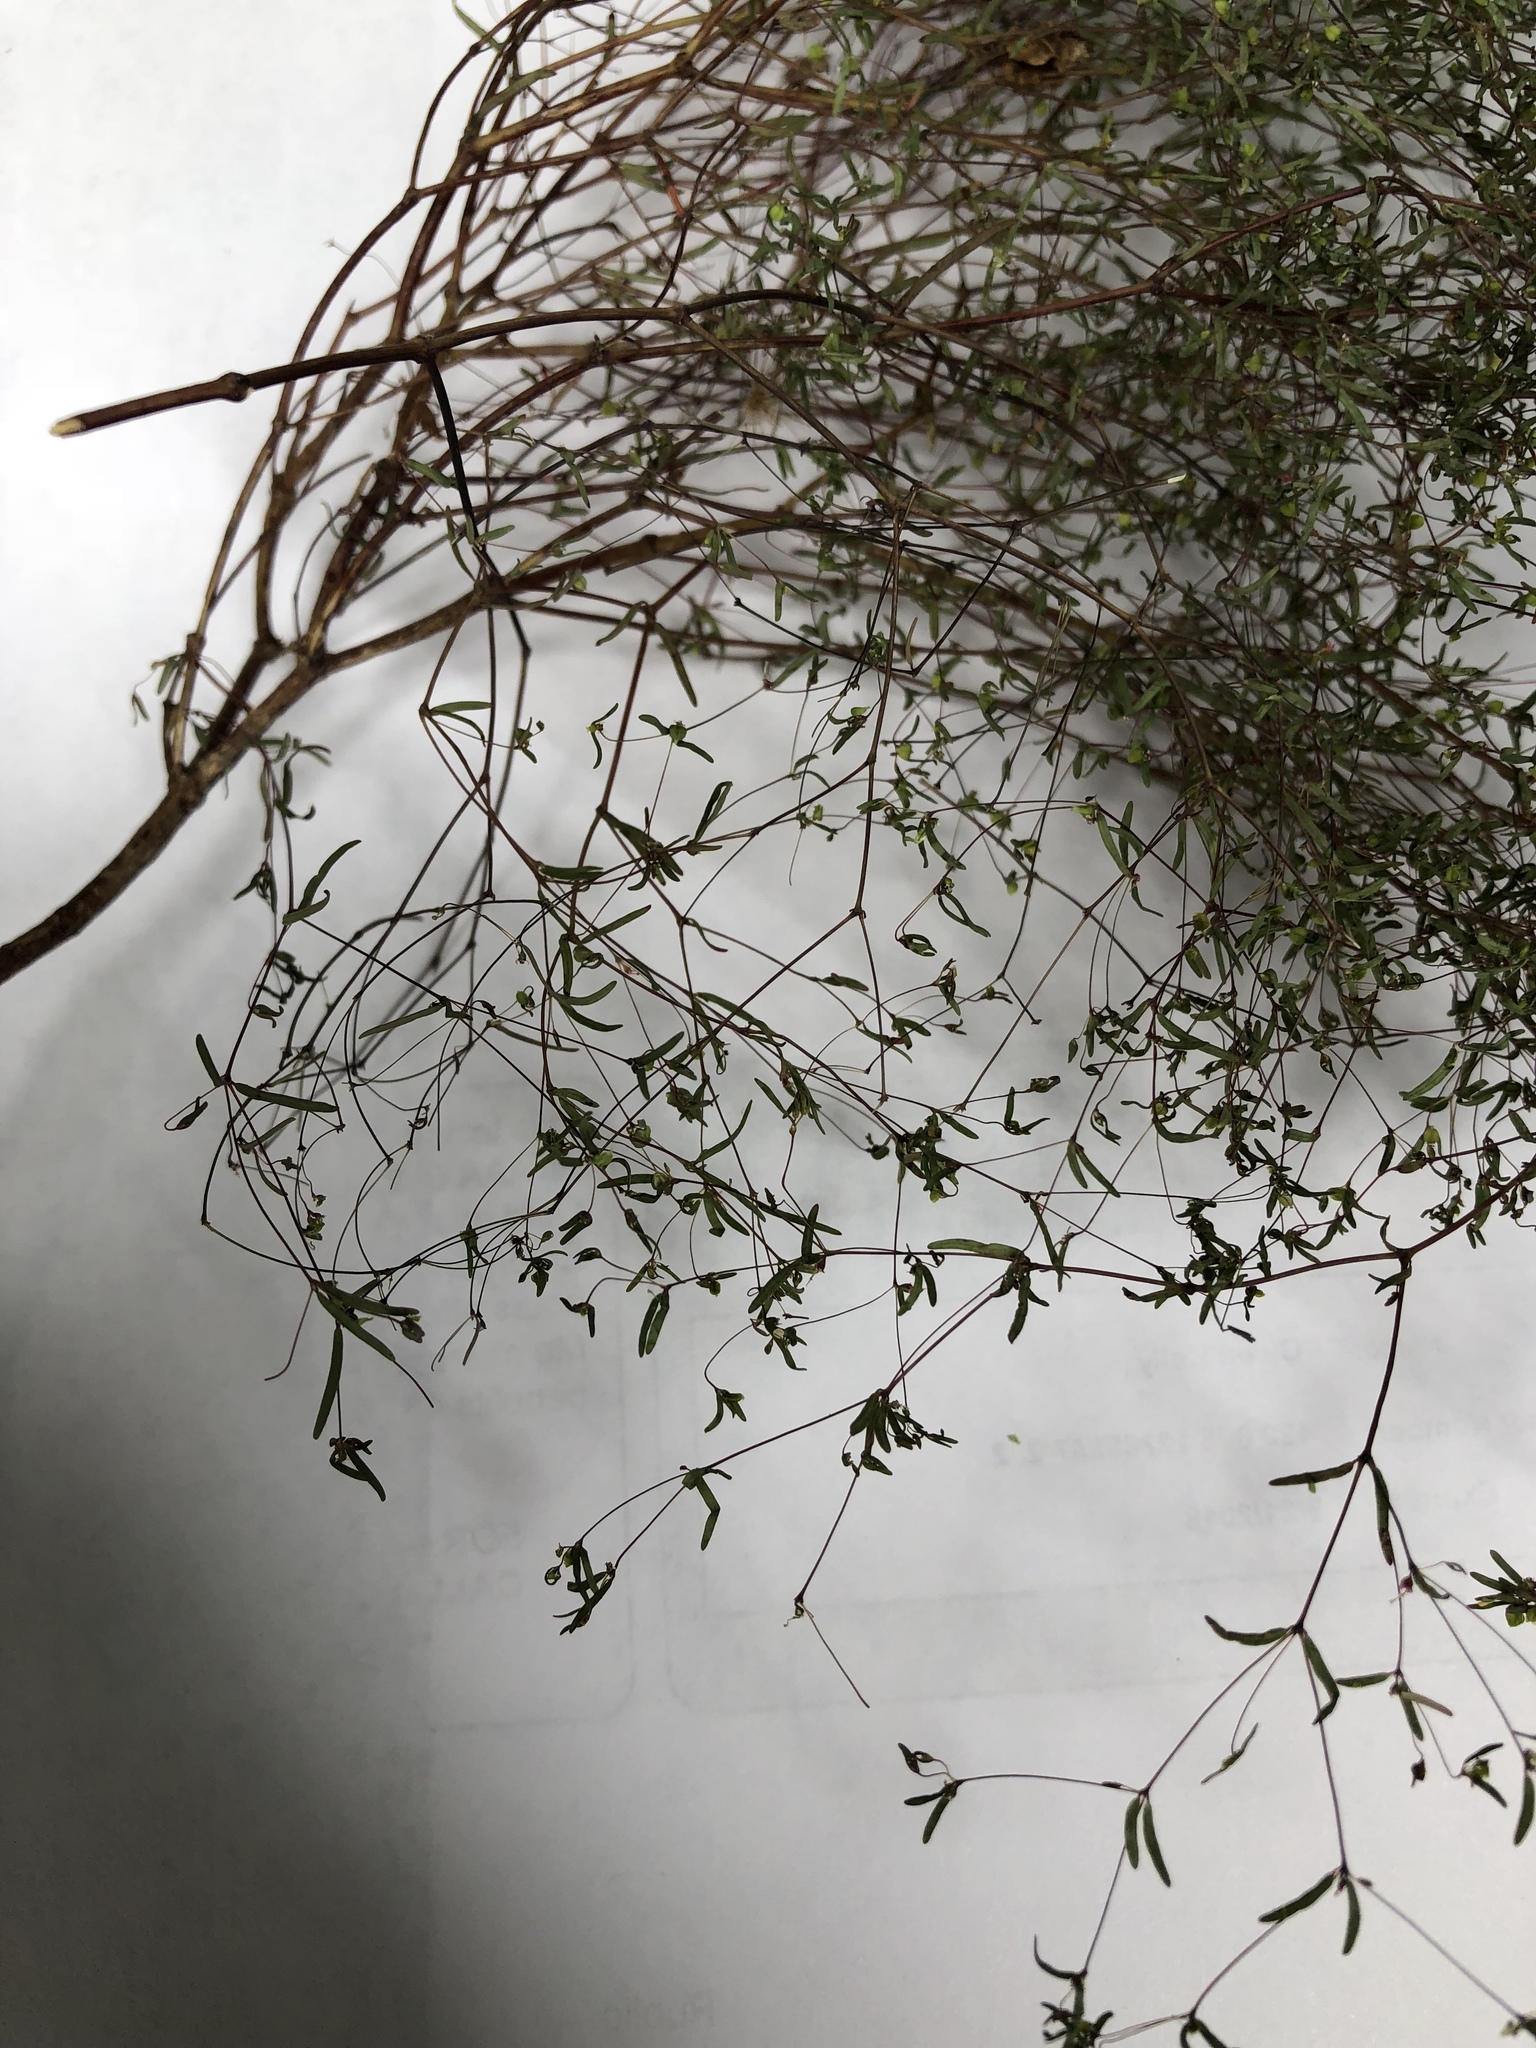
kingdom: Plantae
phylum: Tracheophyta
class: Magnoliopsida
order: Malpighiales
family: Euphorbiaceae
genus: Euphorbia
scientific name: Euphorbia gracillima
